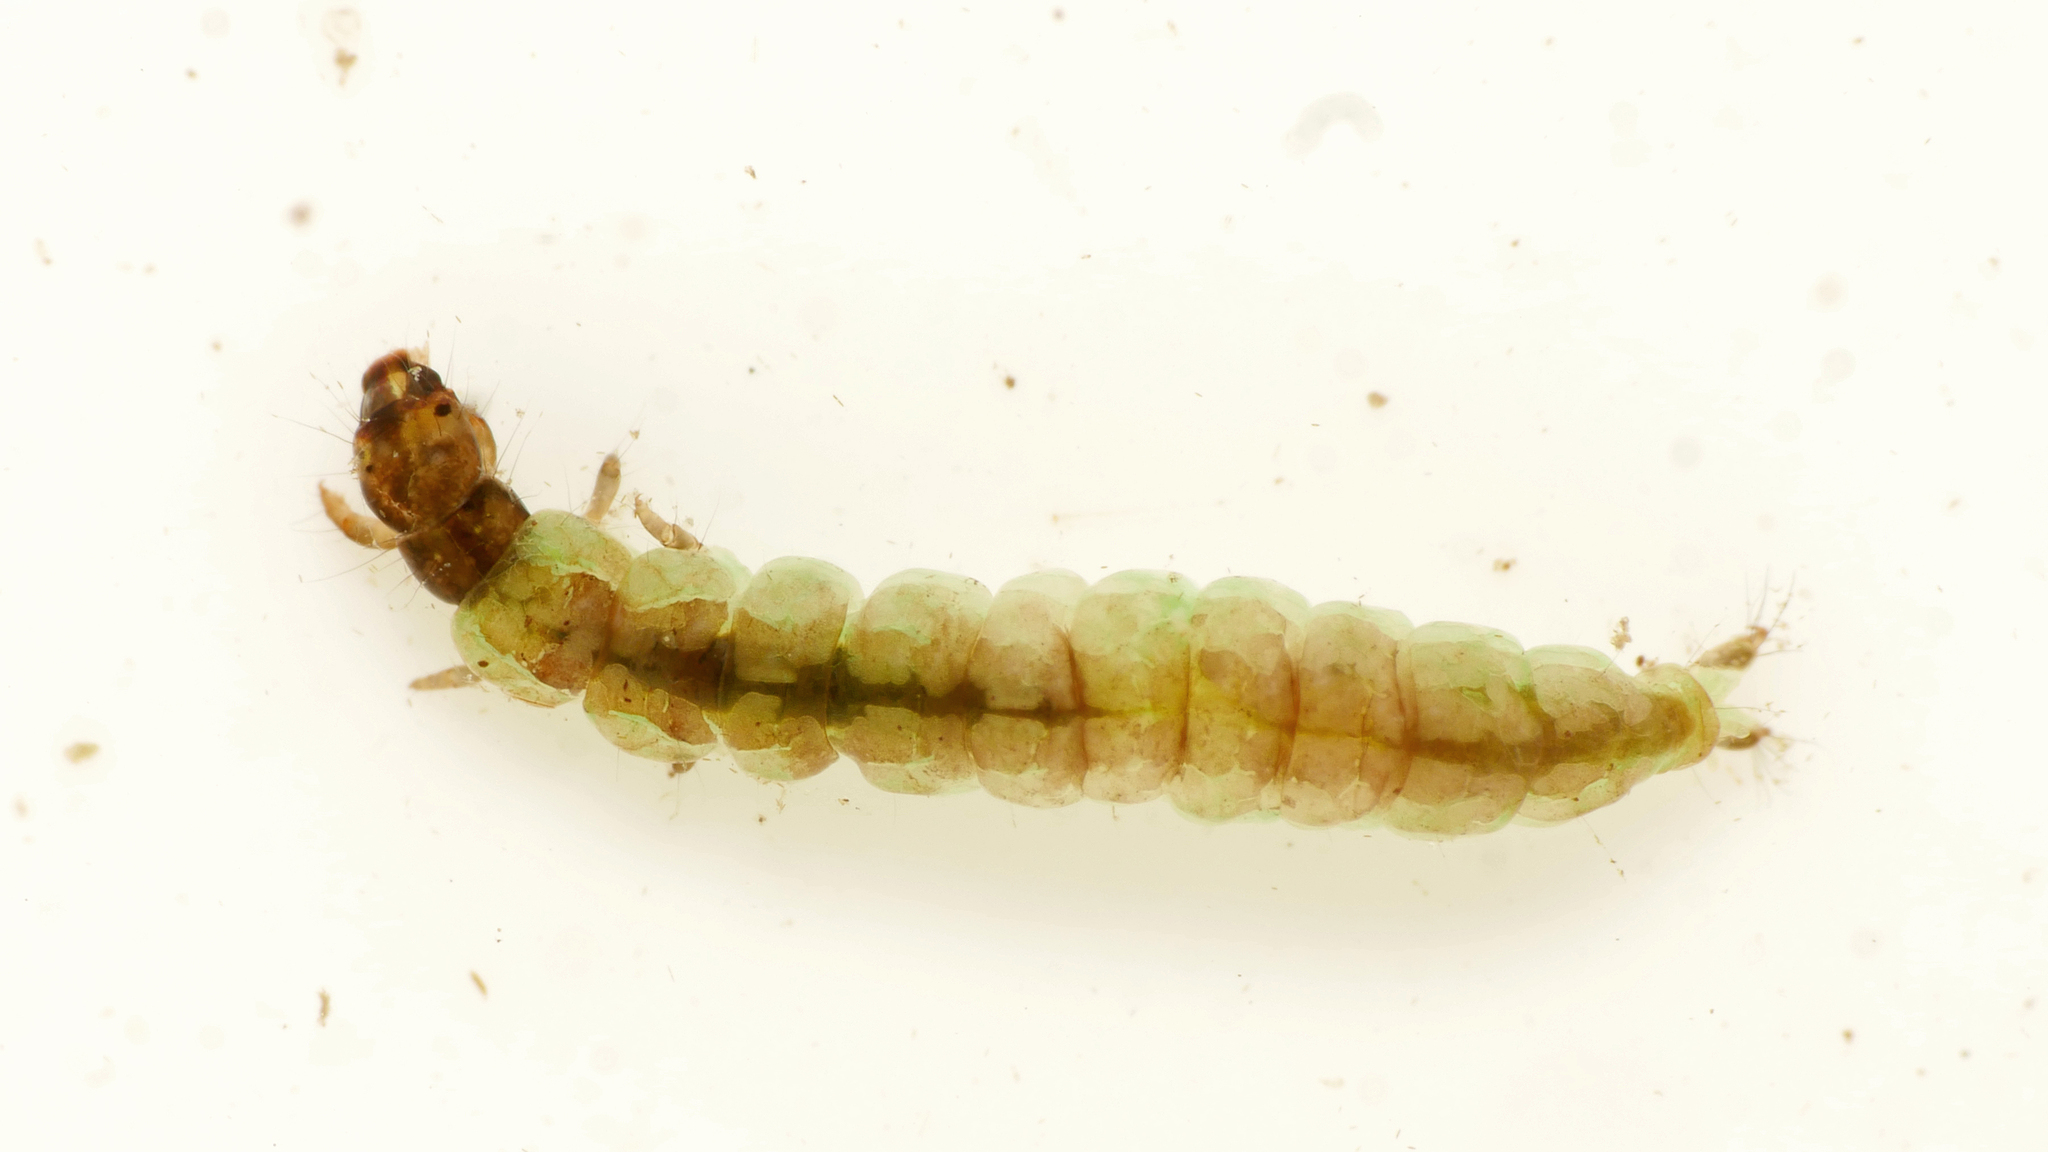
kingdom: Animalia
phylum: Arthropoda
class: Insecta
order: Trichoptera
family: Psychomyiidae
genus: Tinodes
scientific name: Tinodes pallidulus
